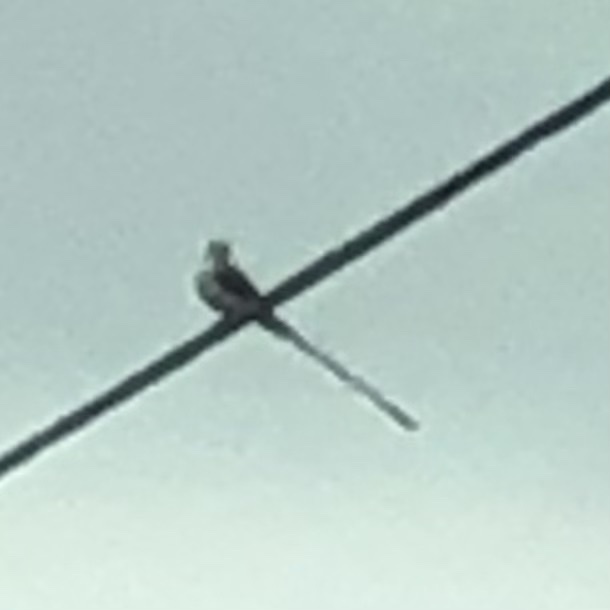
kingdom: Animalia
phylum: Chordata
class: Aves
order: Passeriformes
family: Tyrannidae
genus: Tyrannus
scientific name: Tyrannus forficatus
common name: Scissor-tailed flycatcher
